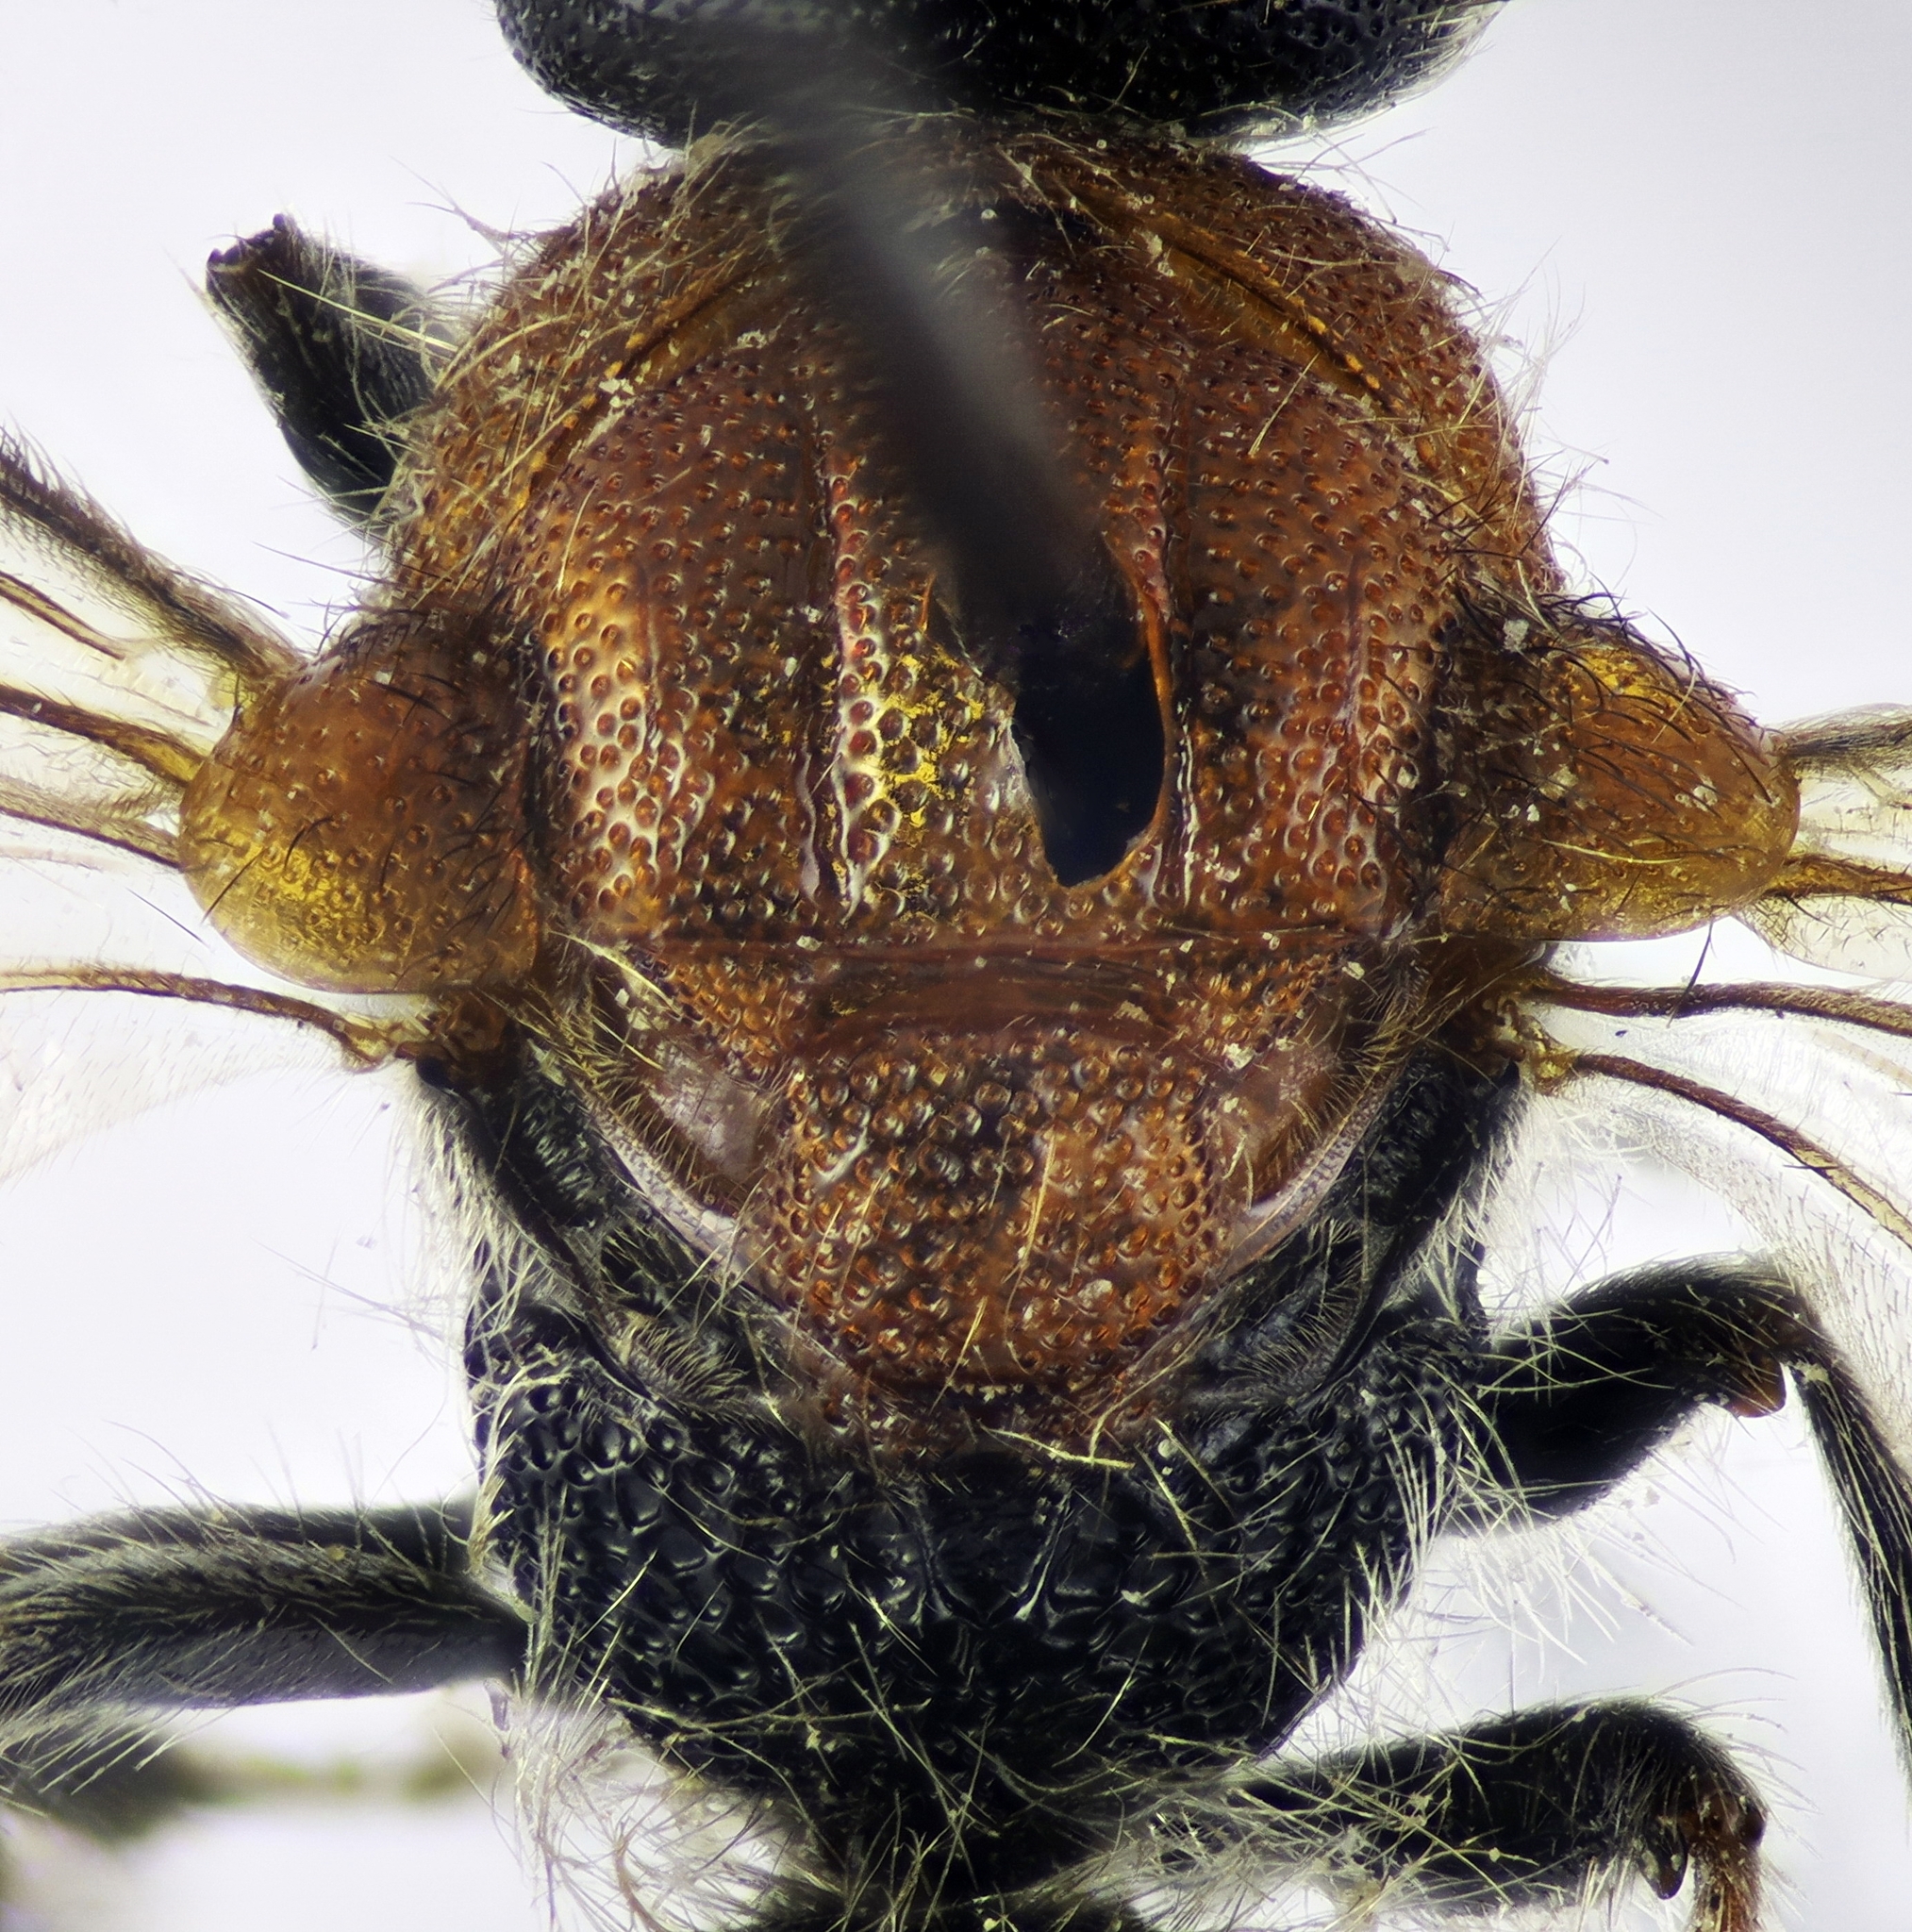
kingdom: Animalia
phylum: Arthropoda
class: Insecta
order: Hymenoptera
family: Mutillidae
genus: Physetopoda
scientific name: Physetopoda lucasii
